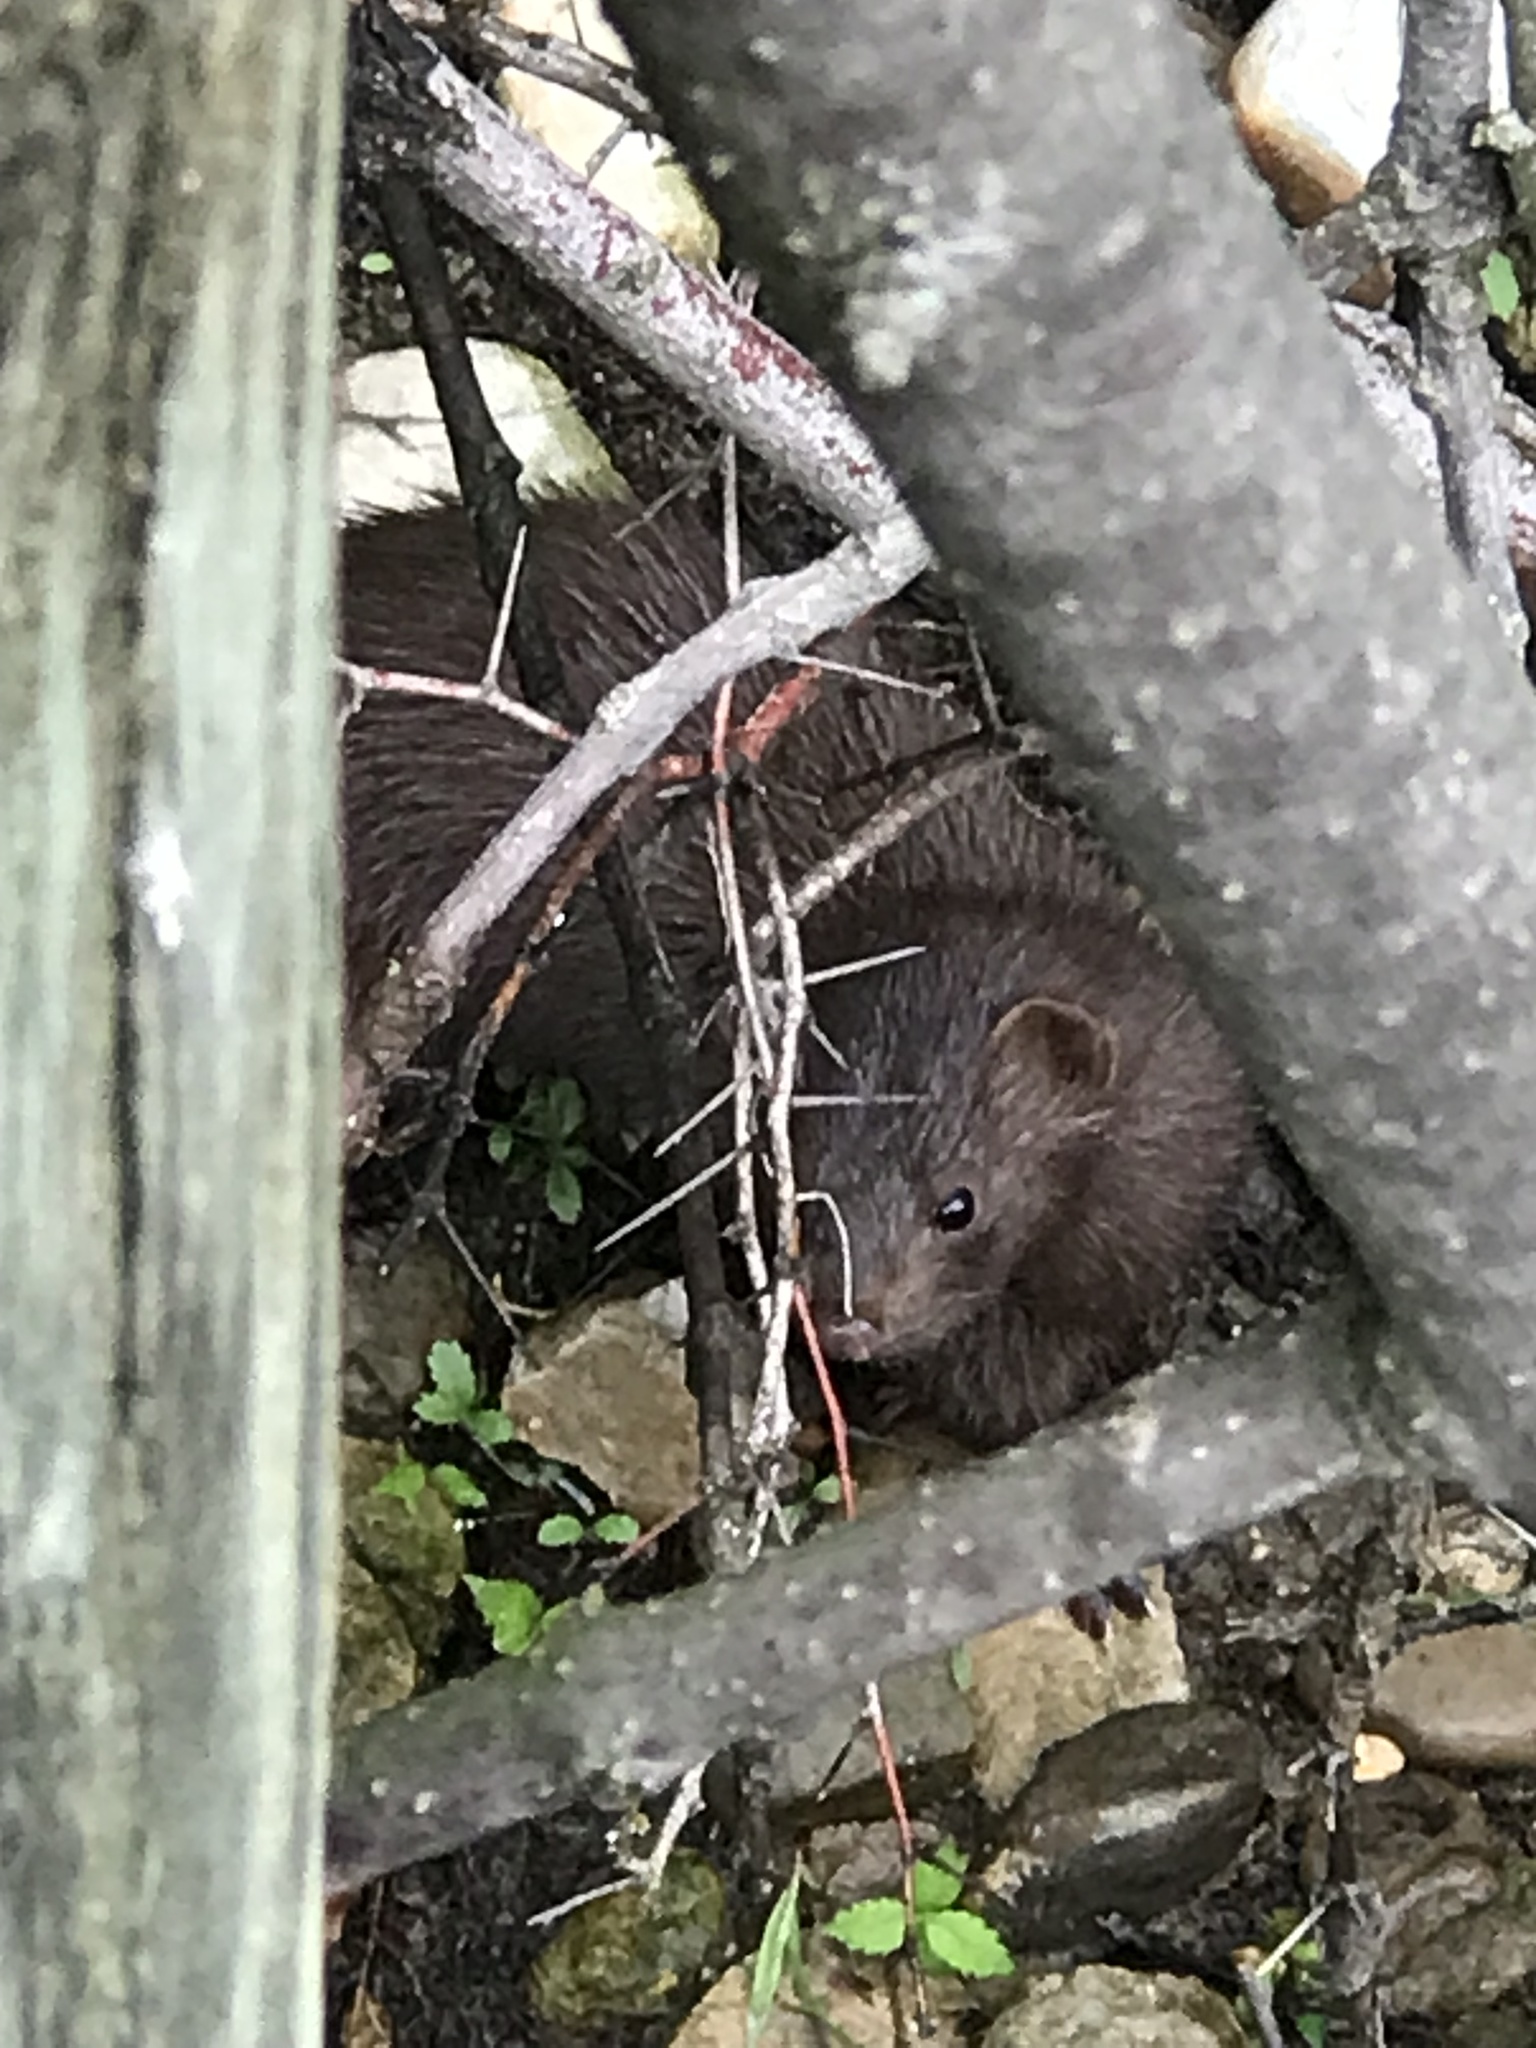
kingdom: Animalia
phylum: Chordata
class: Mammalia
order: Carnivora
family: Mustelidae
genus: Mustela
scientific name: Mustela
